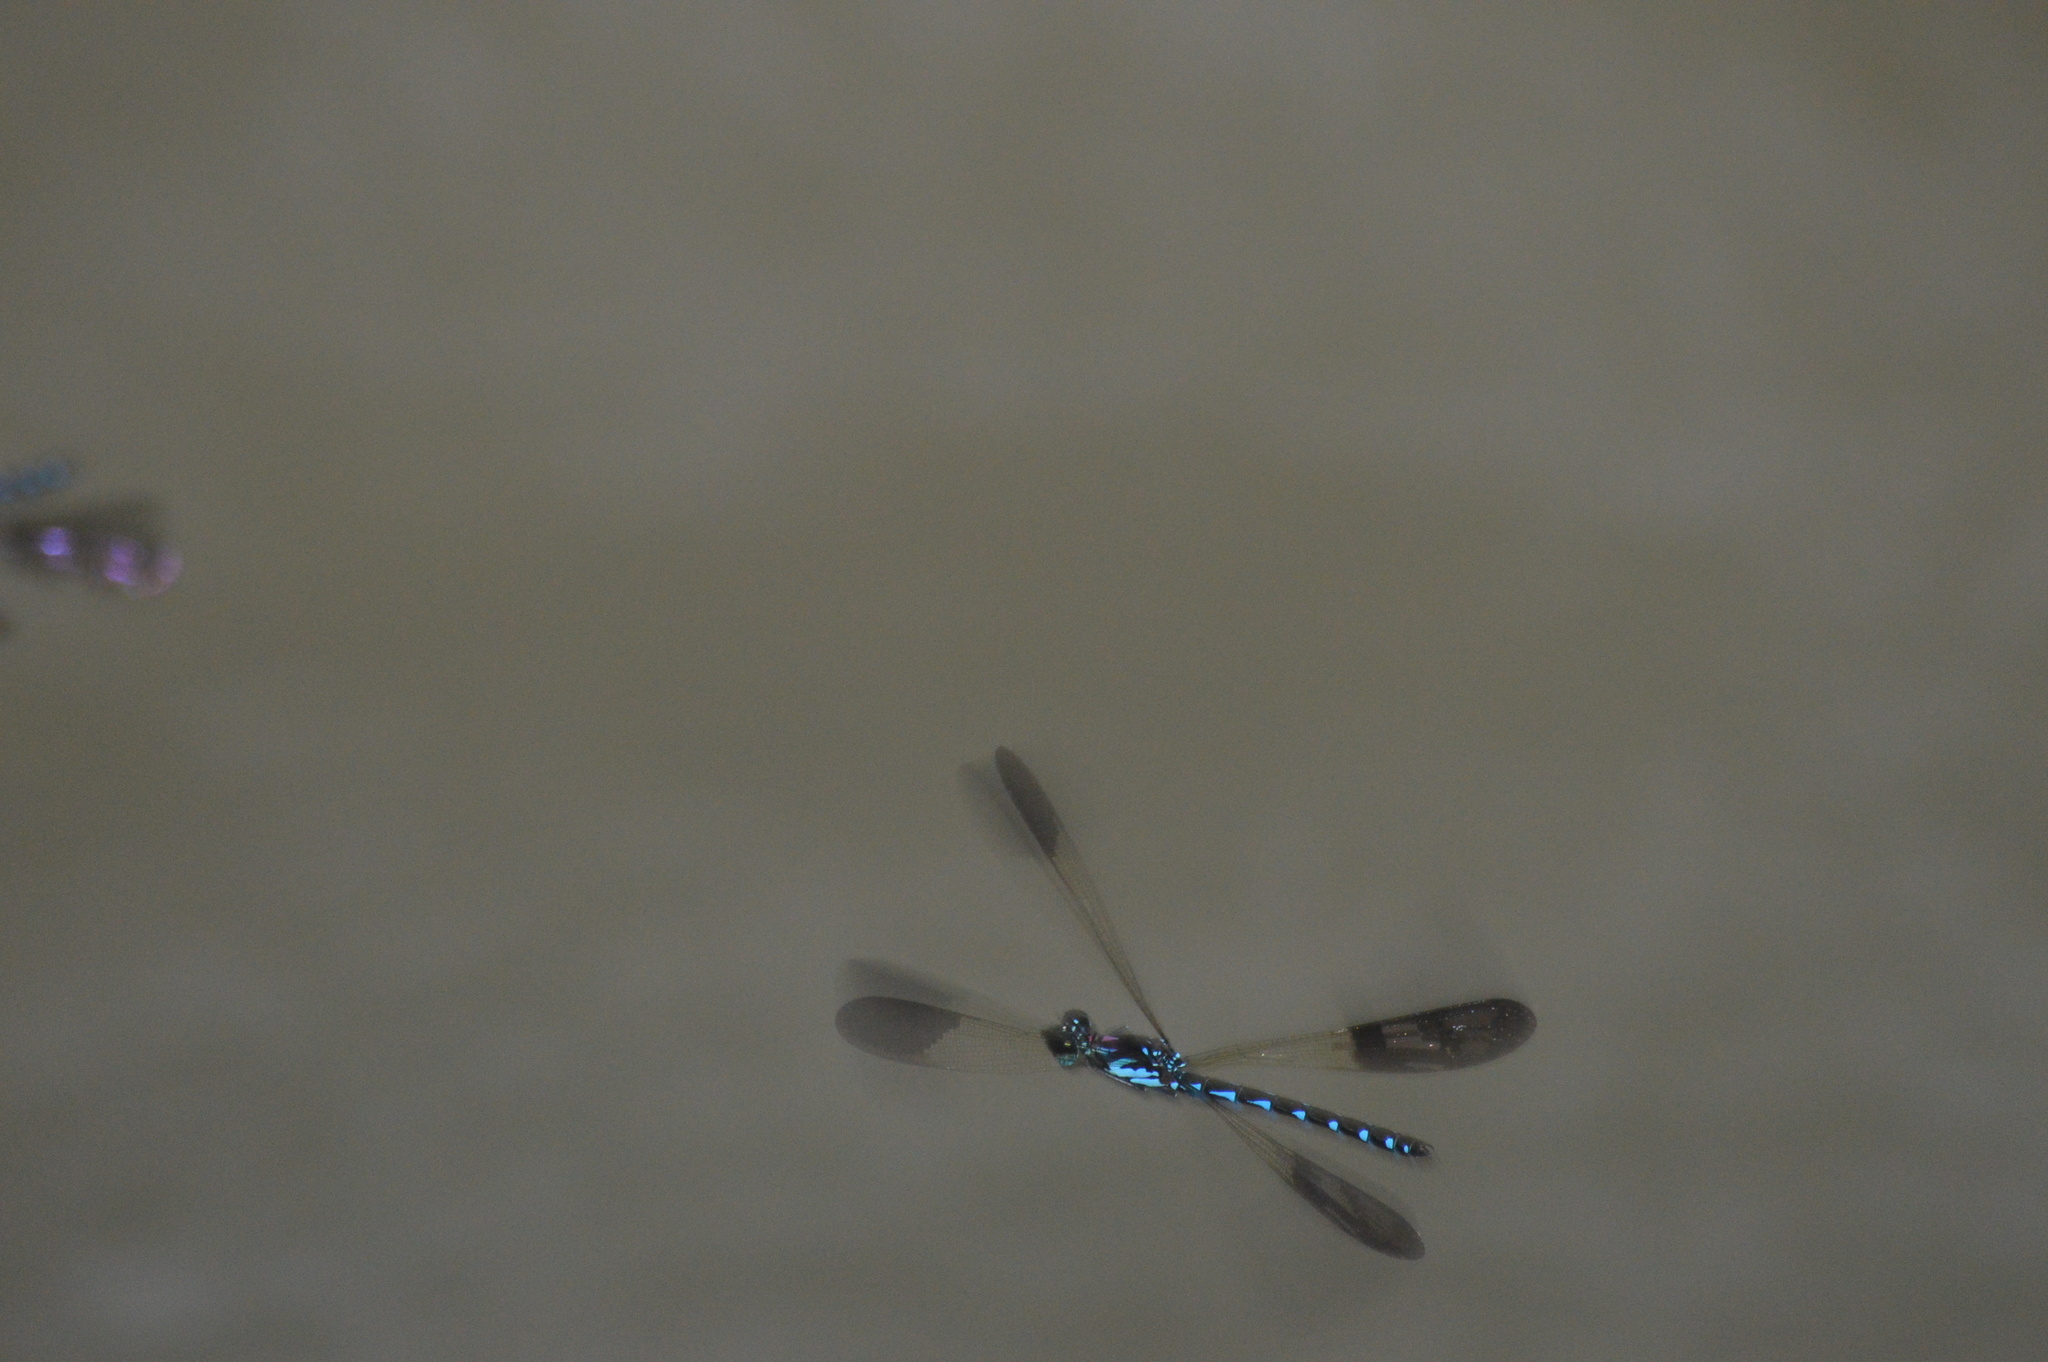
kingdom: Animalia
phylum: Arthropoda
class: Insecta
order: Odonata
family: Chlorocyphidae
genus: Heliocypha
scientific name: Heliocypha perforata
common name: Common blue jewel
